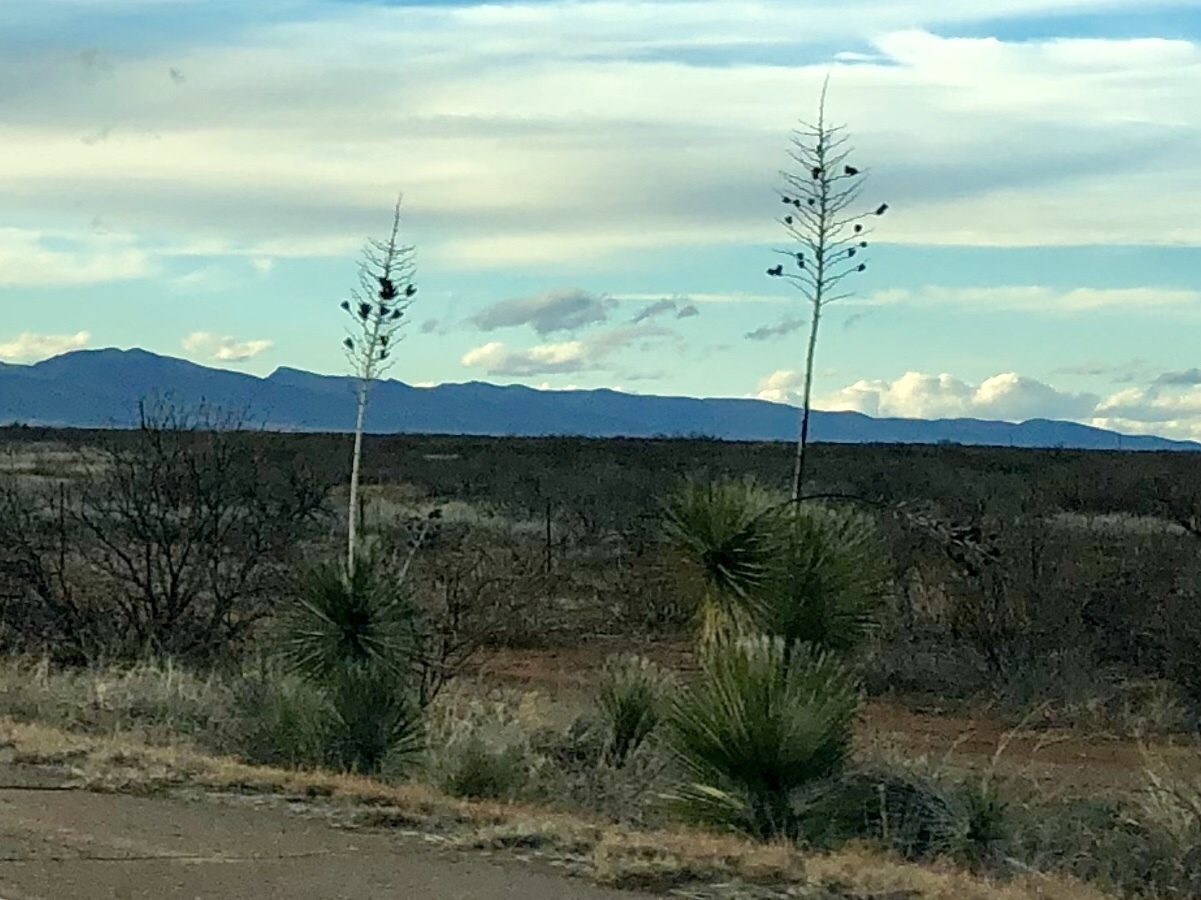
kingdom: Plantae
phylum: Tracheophyta
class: Liliopsida
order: Asparagales
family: Asparagaceae
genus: Yucca
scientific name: Yucca elata
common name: Palmella
